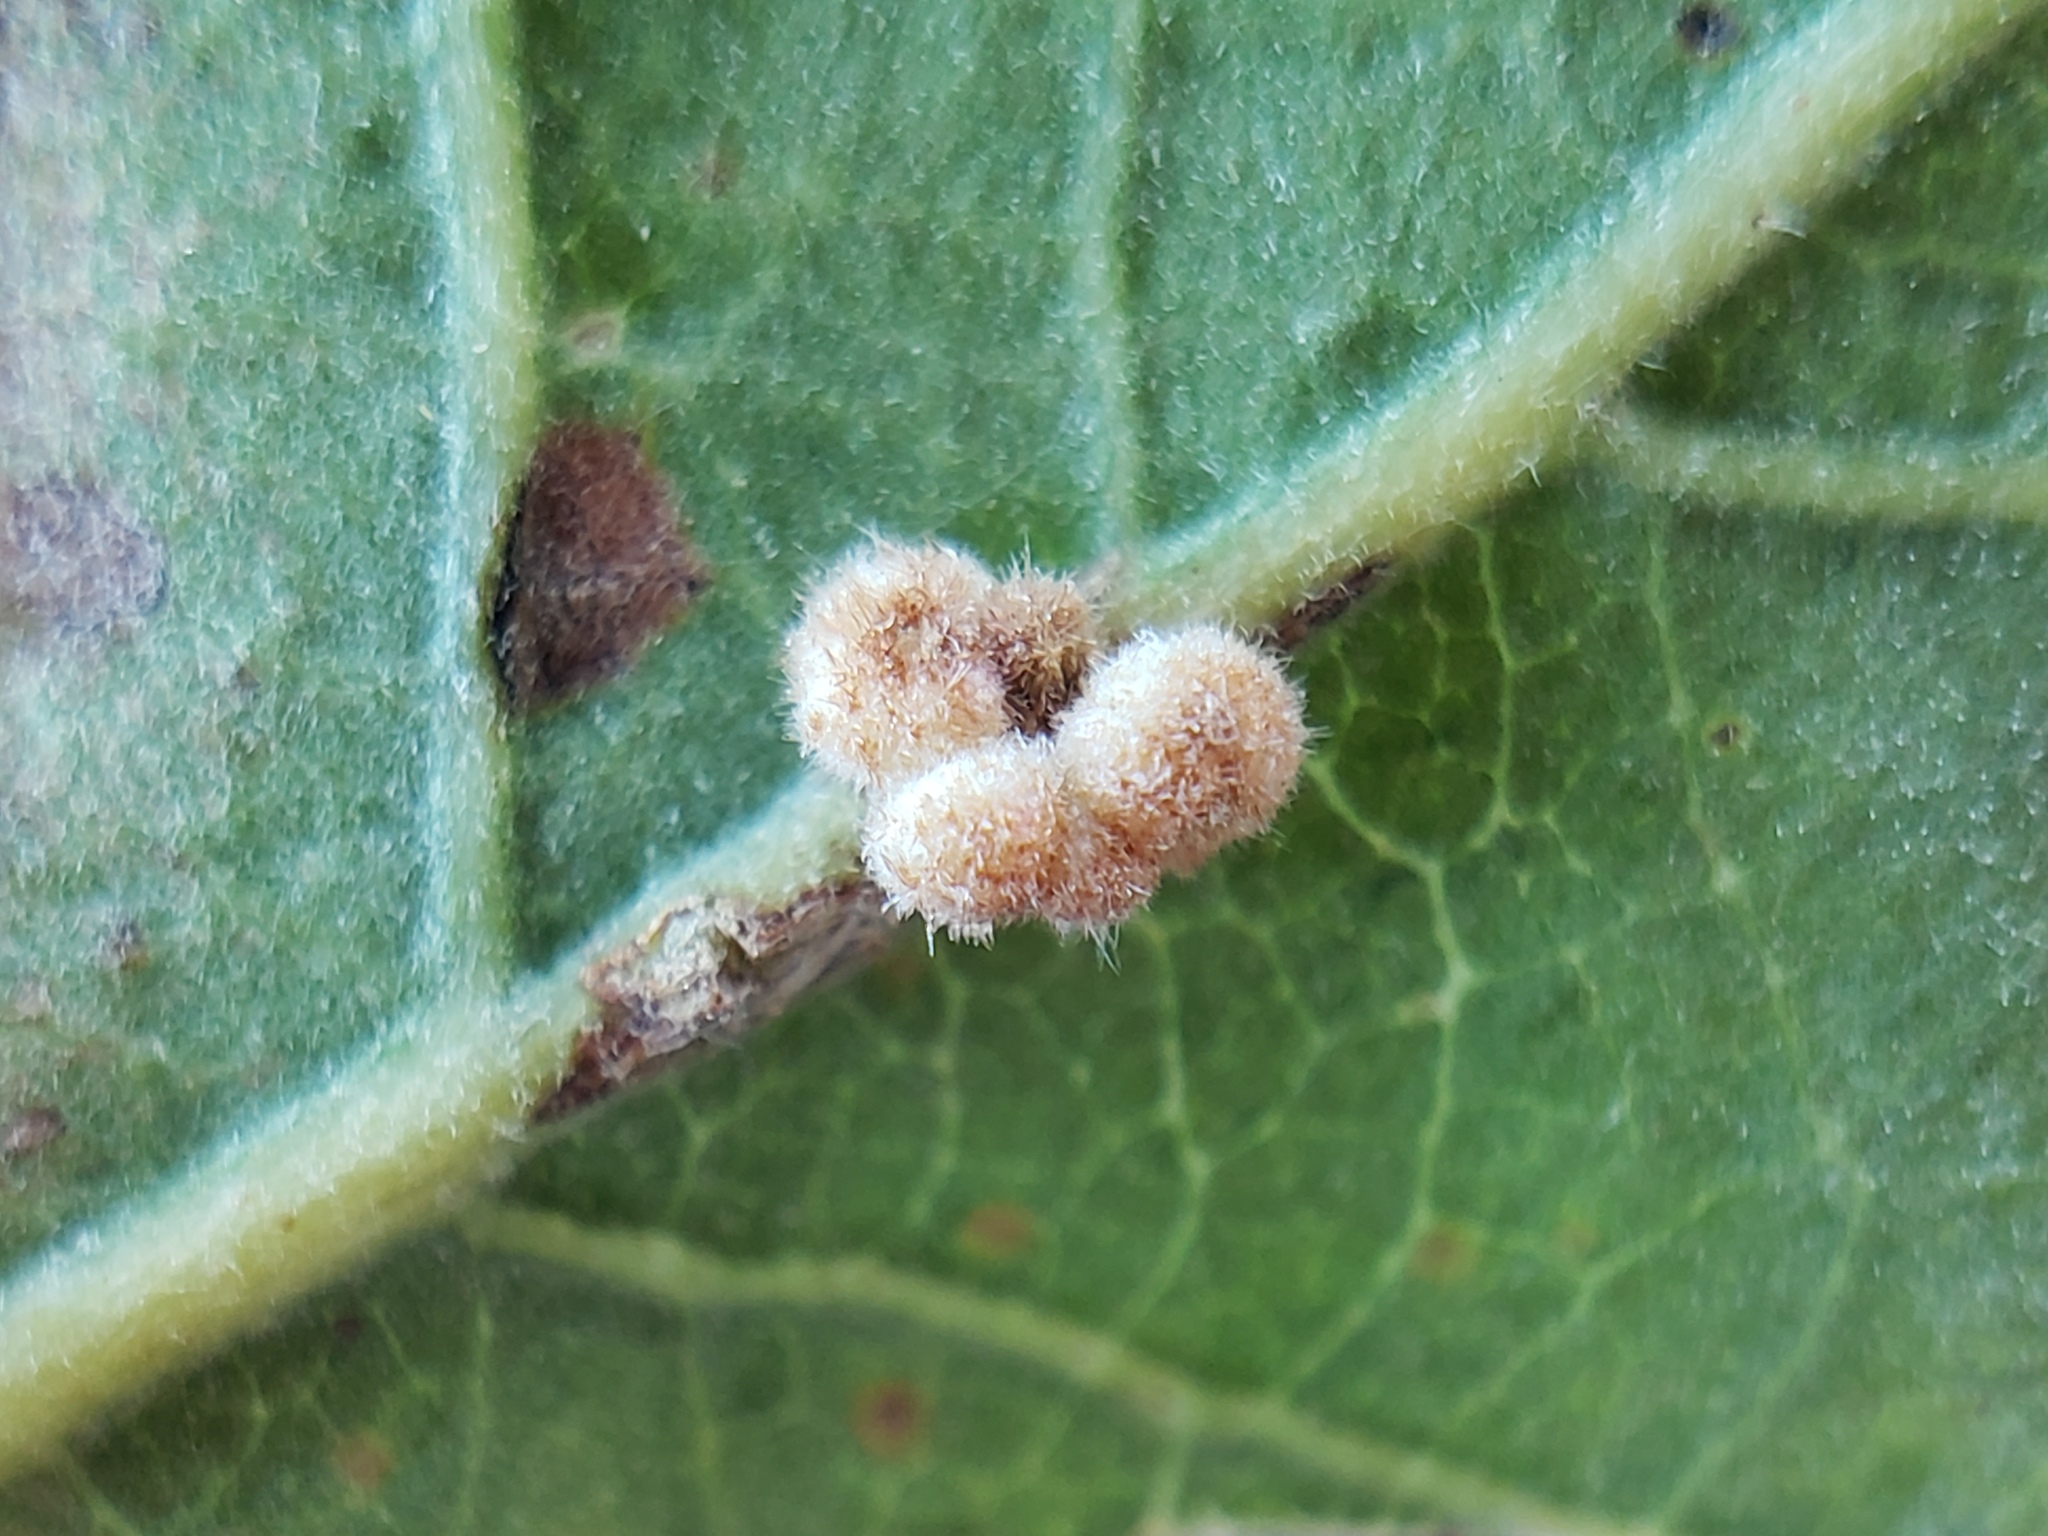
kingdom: Animalia
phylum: Arthropoda
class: Insecta
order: Hymenoptera
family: Cynipidae
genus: Andricus
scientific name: Andricus
